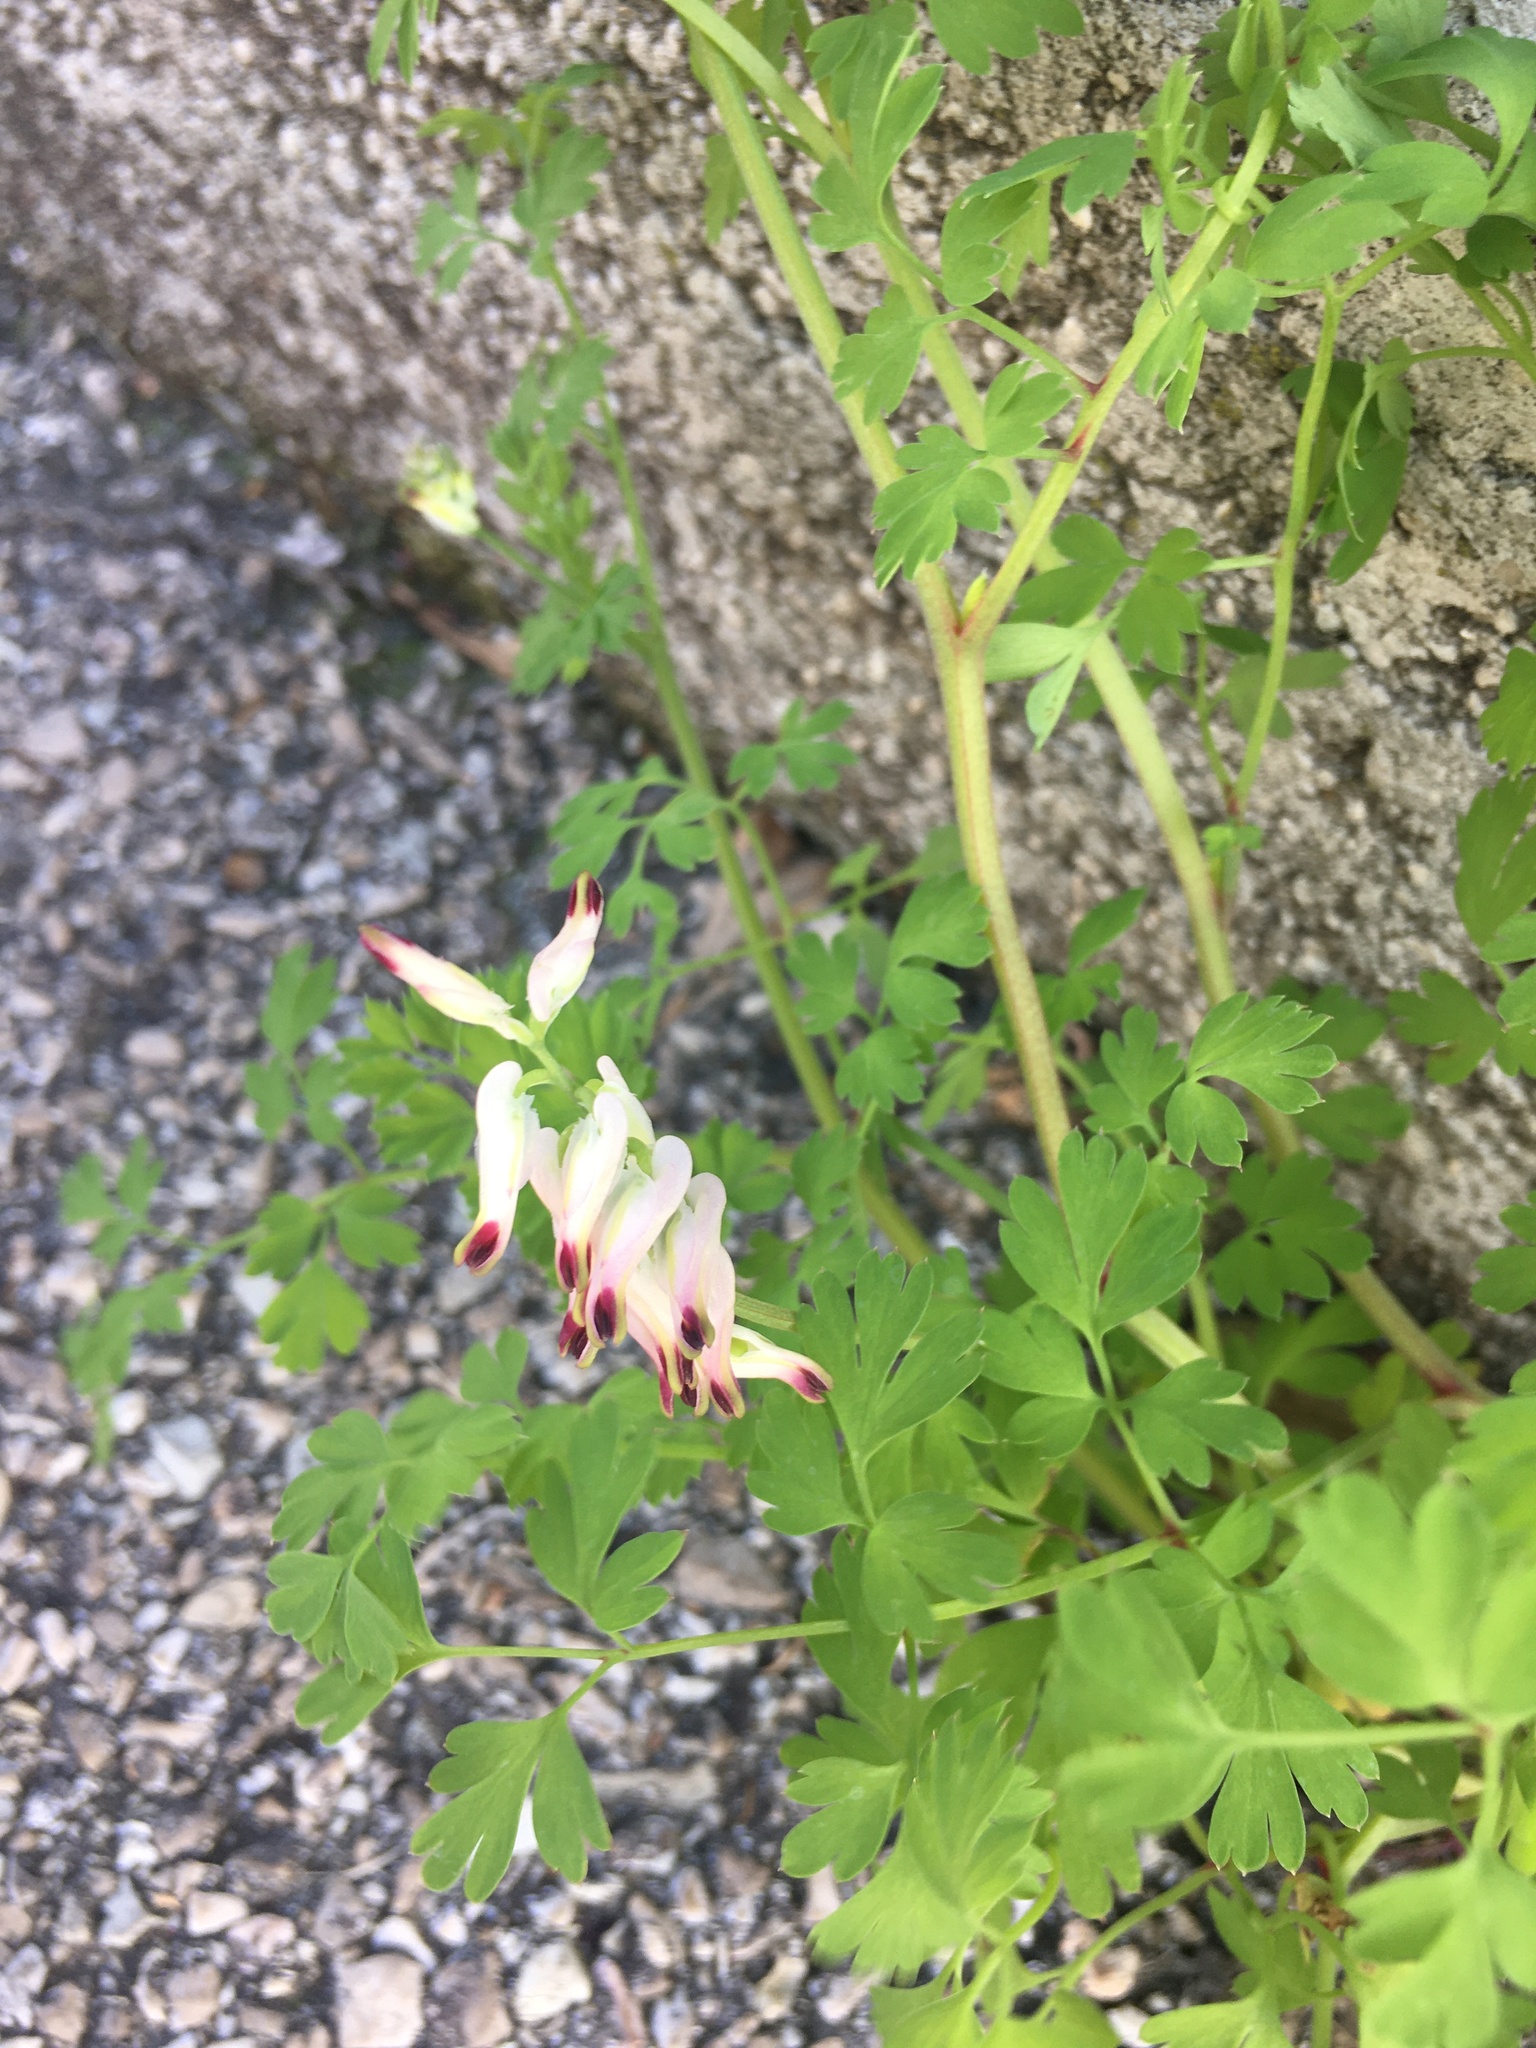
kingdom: Plantae
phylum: Tracheophyta
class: Magnoliopsida
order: Ranunculales
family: Papaveraceae
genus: Fumaria
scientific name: Fumaria capreolata
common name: White ramping-fumitory
